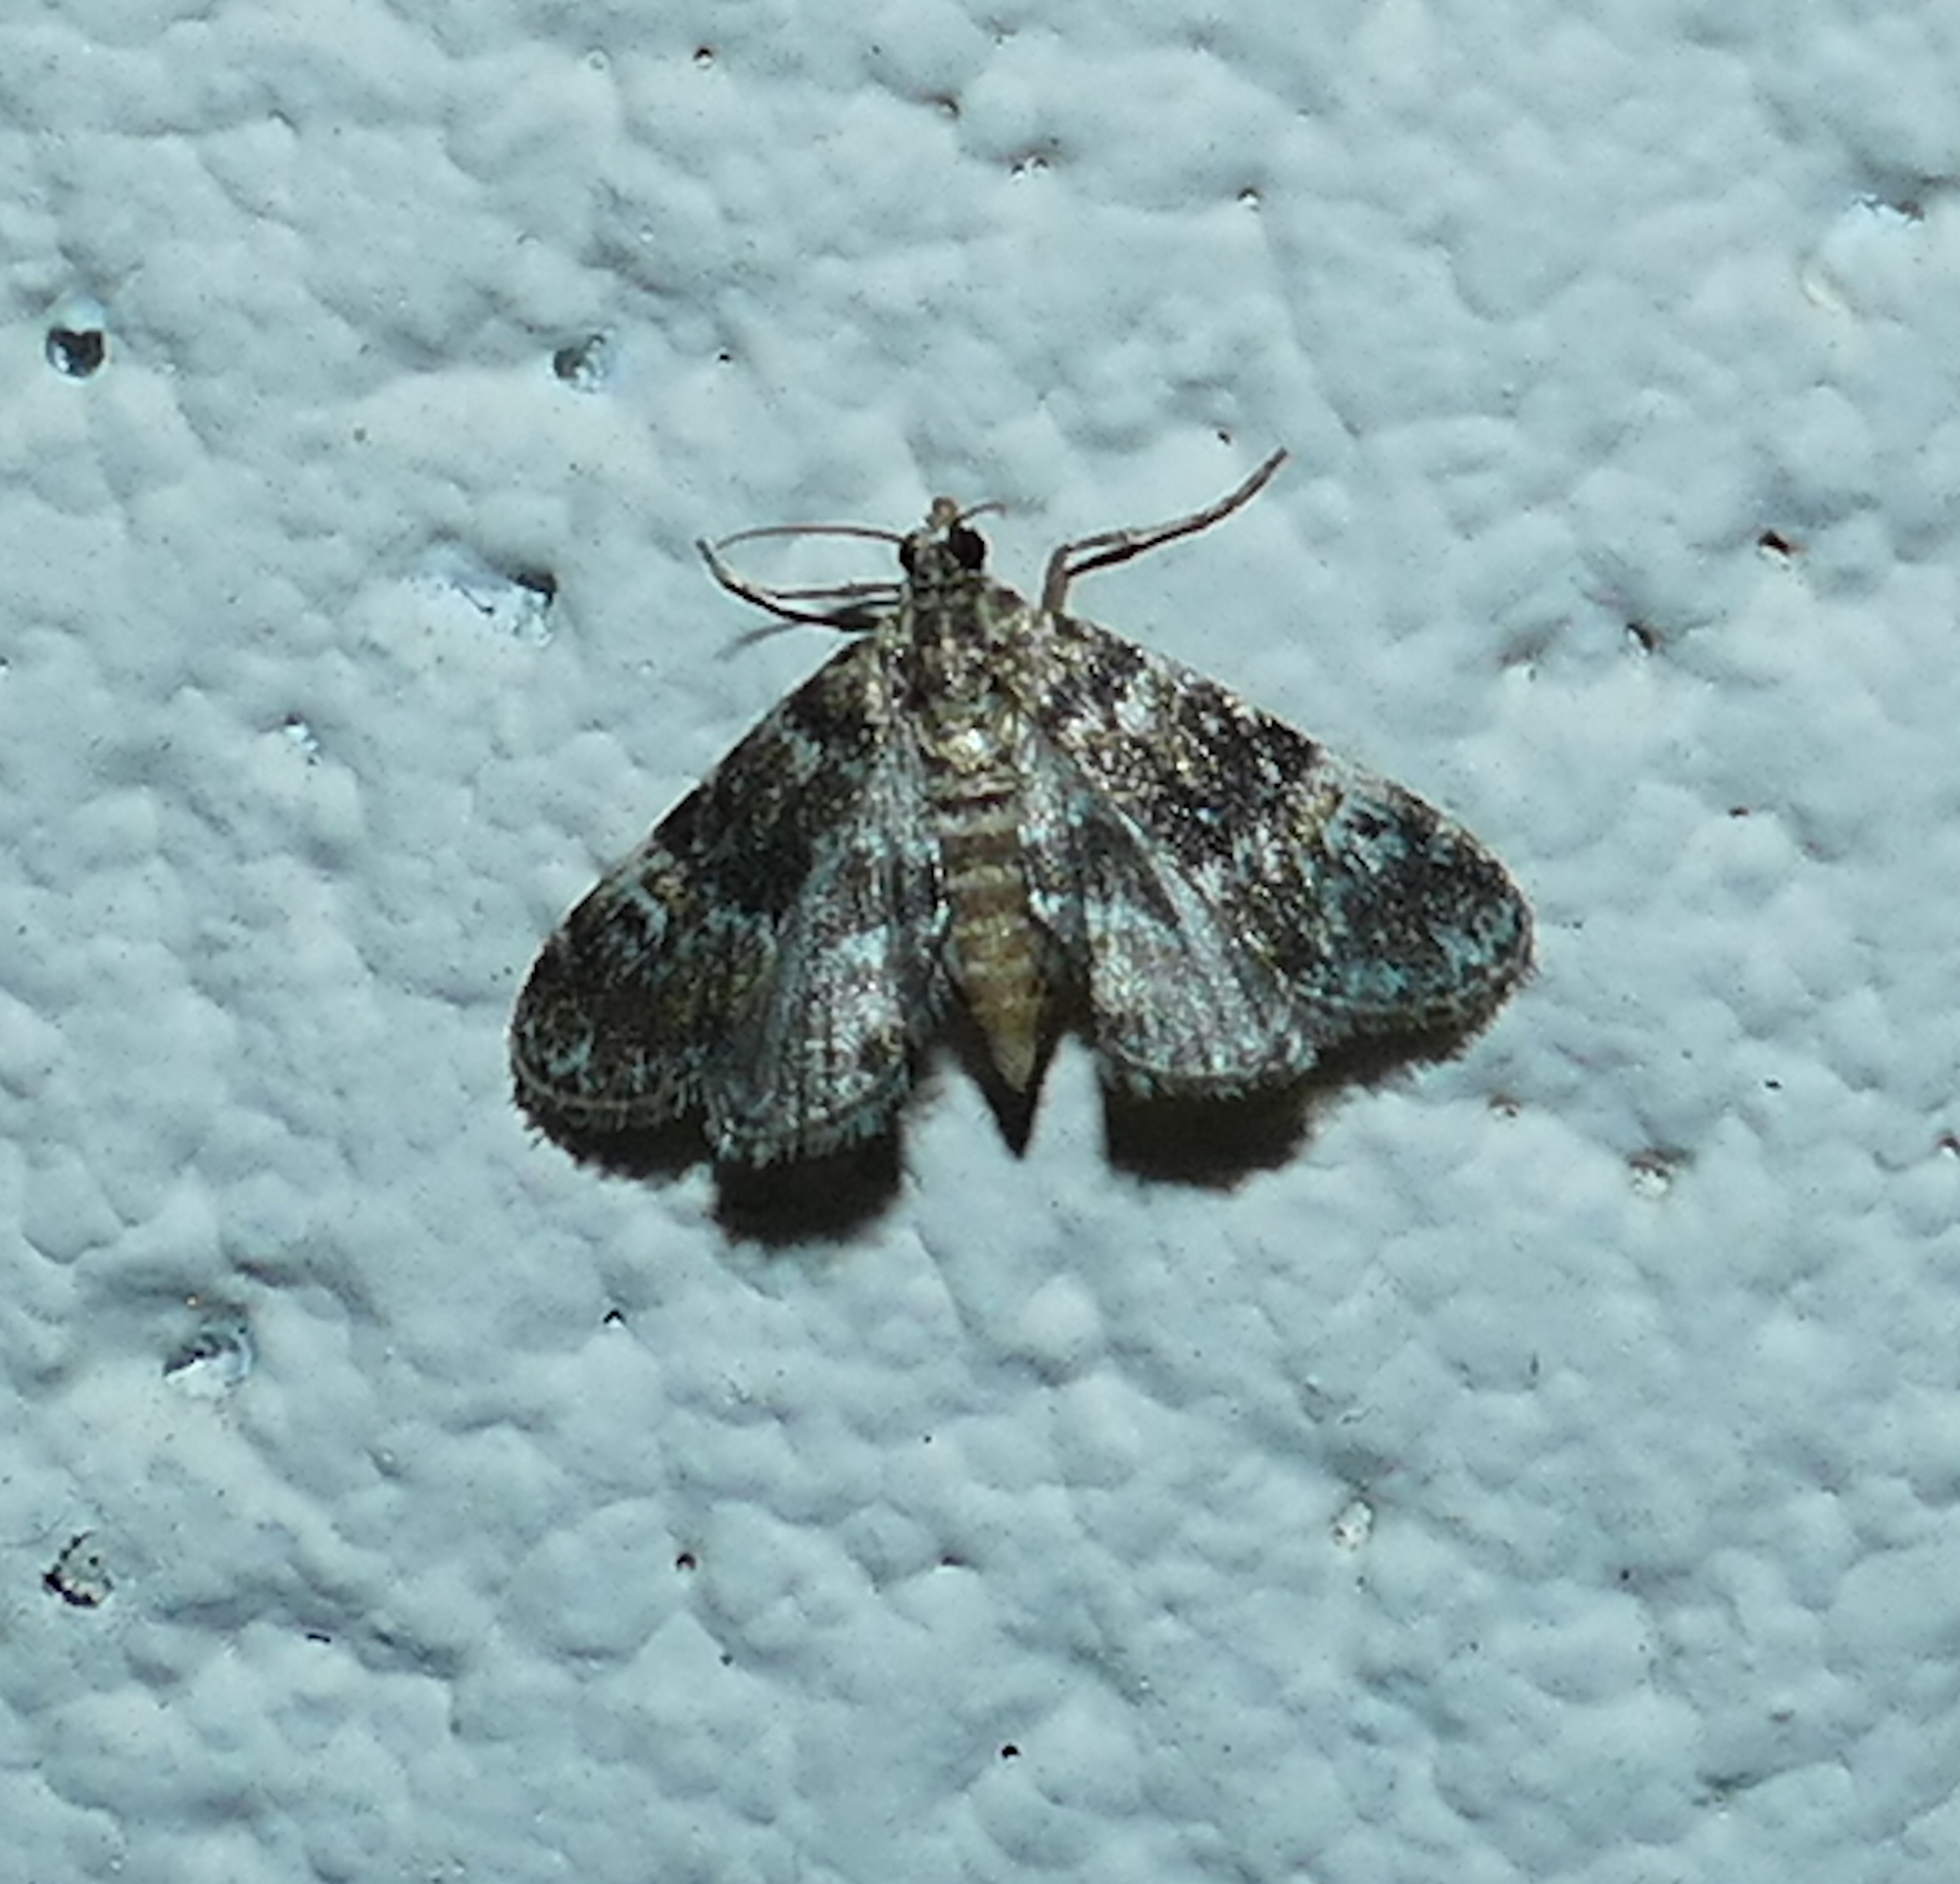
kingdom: Animalia
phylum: Arthropoda
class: Insecta
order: Lepidoptera
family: Crambidae
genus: Elophila
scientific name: Elophila obliteralis
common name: Waterlily leafcutter moth
